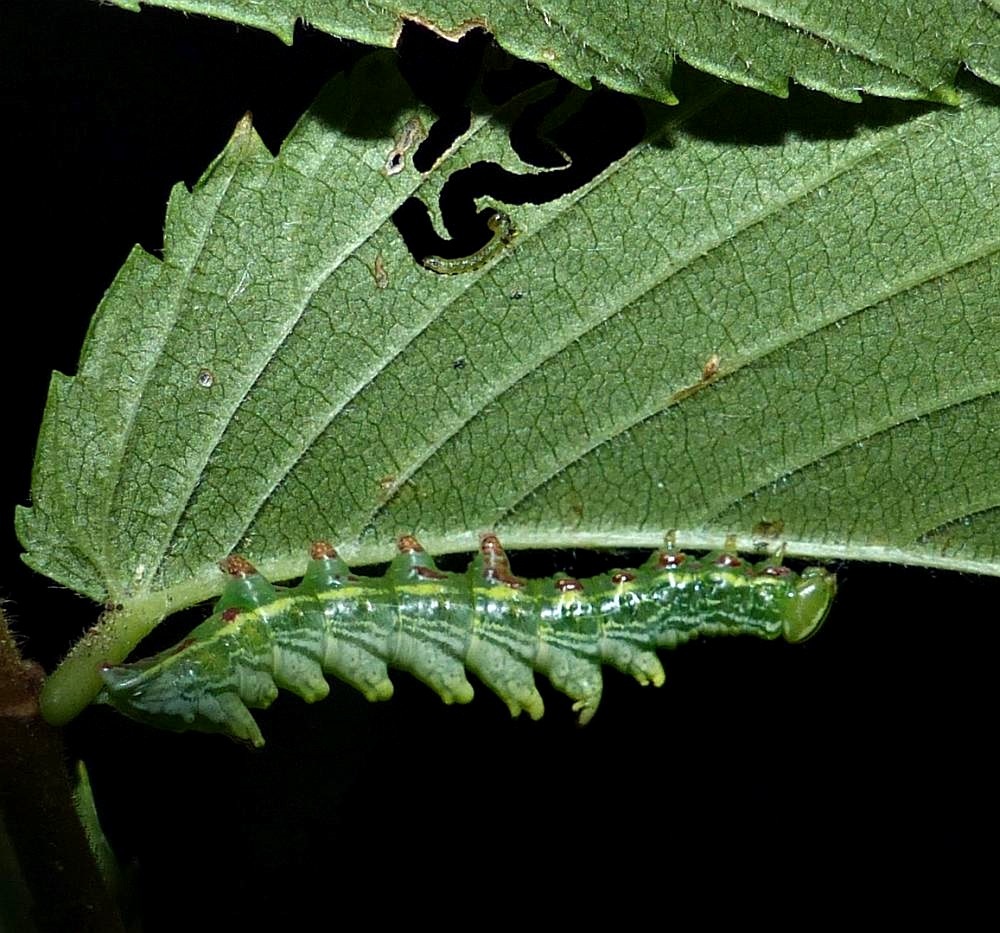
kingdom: Animalia
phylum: Arthropoda
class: Insecta
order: Lepidoptera
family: Notodontidae
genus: Nerice
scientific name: Nerice bidentata
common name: Double-toothed prominent
